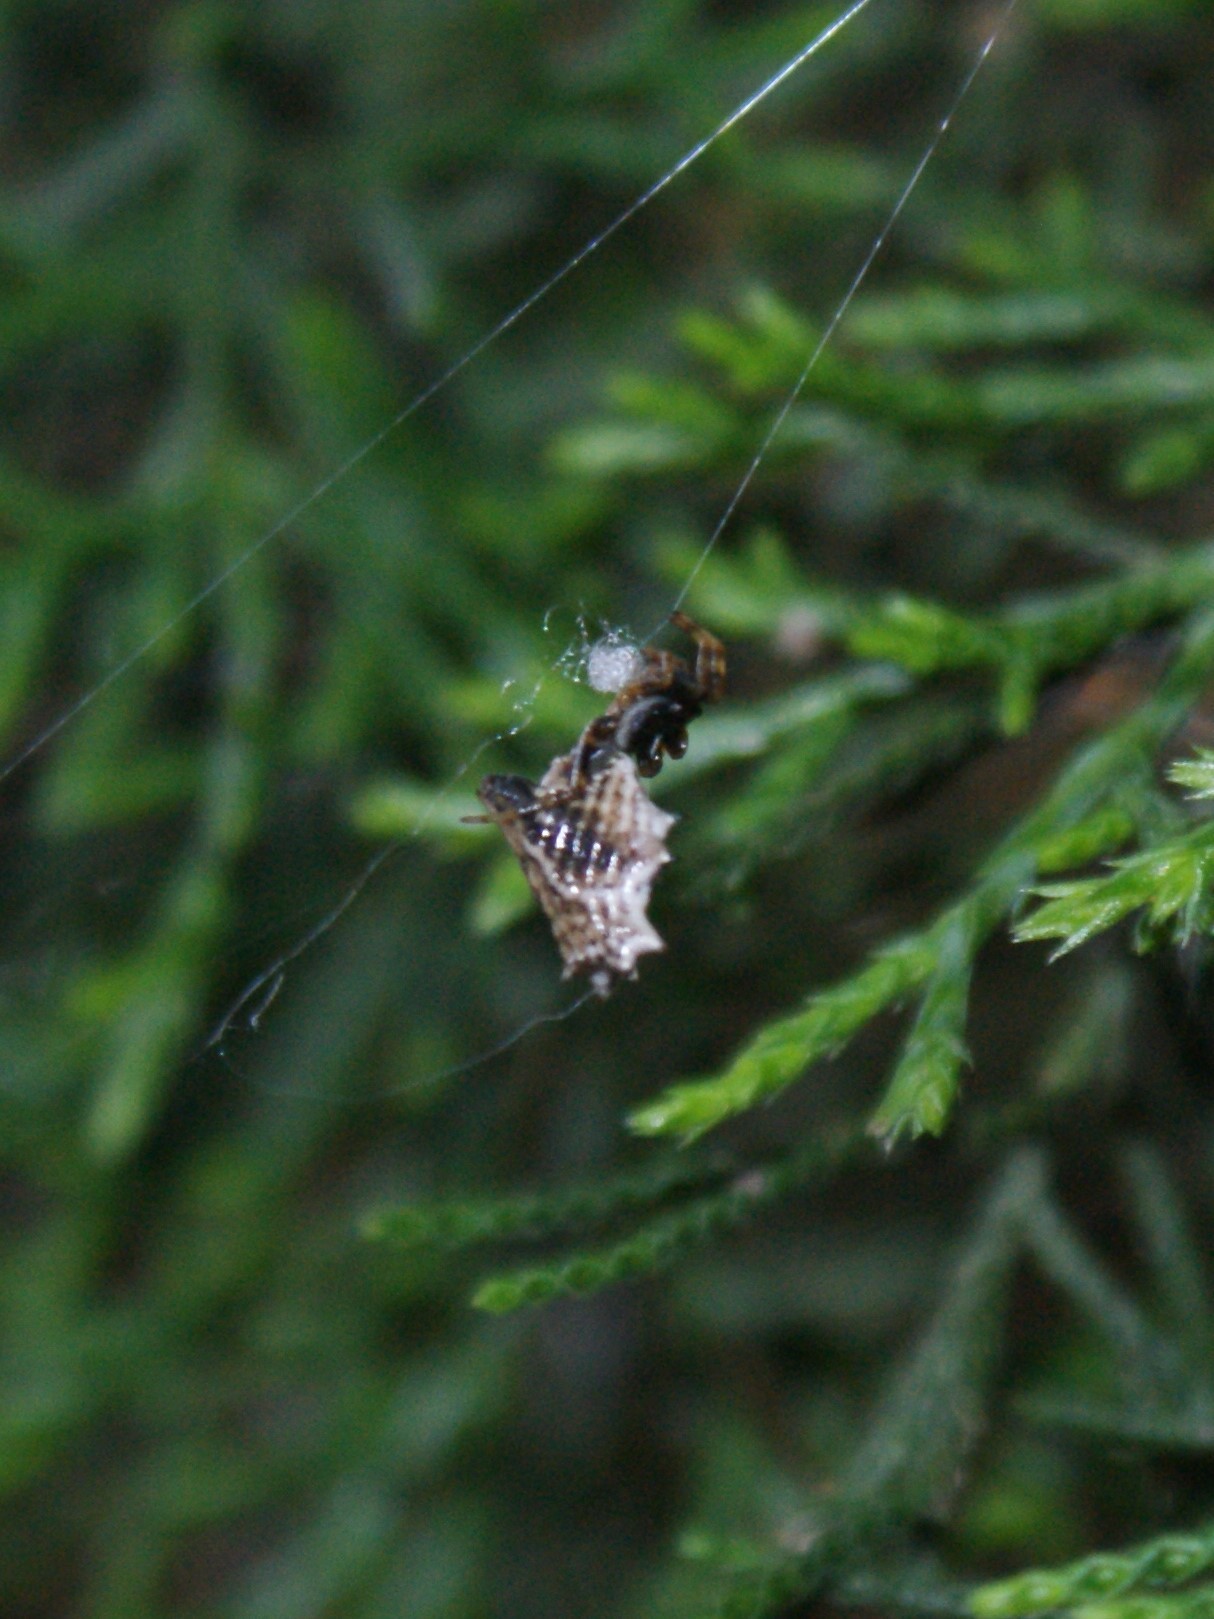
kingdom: Animalia
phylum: Arthropoda
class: Arachnida
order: Araneae
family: Araneidae
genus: Micrathena
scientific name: Micrathena gracilis
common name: Orb weavers
